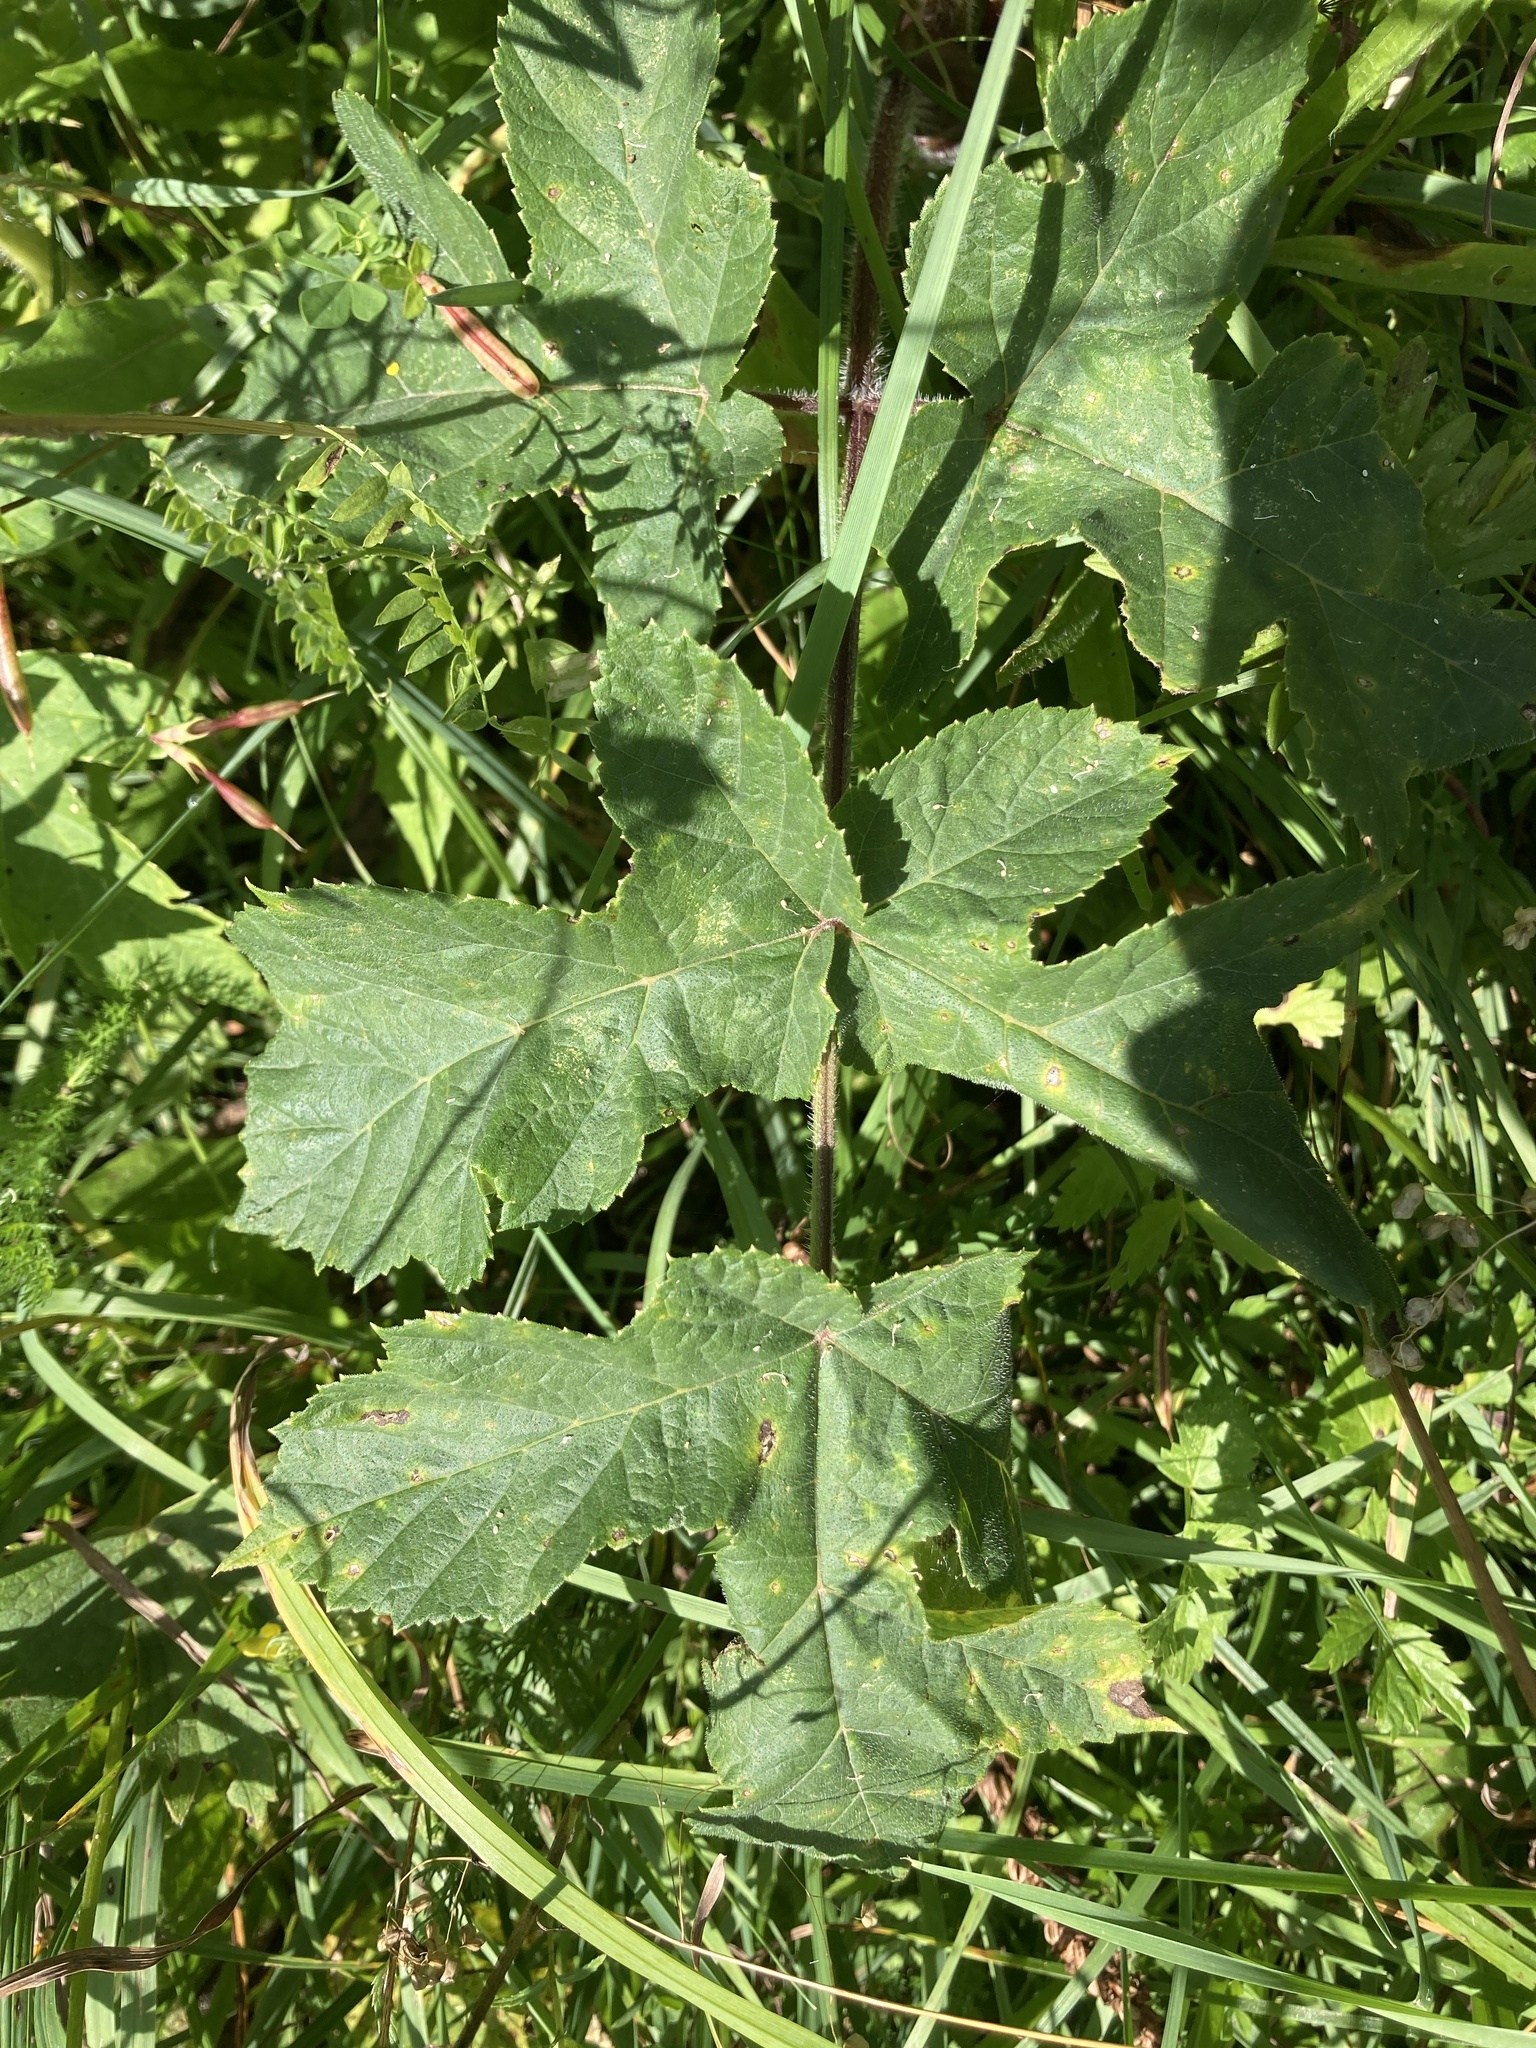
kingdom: Plantae
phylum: Tracheophyta
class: Magnoliopsida
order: Apiales
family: Apiaceae
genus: Heracleum
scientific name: Heracleum sphondylium
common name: Hogweed
